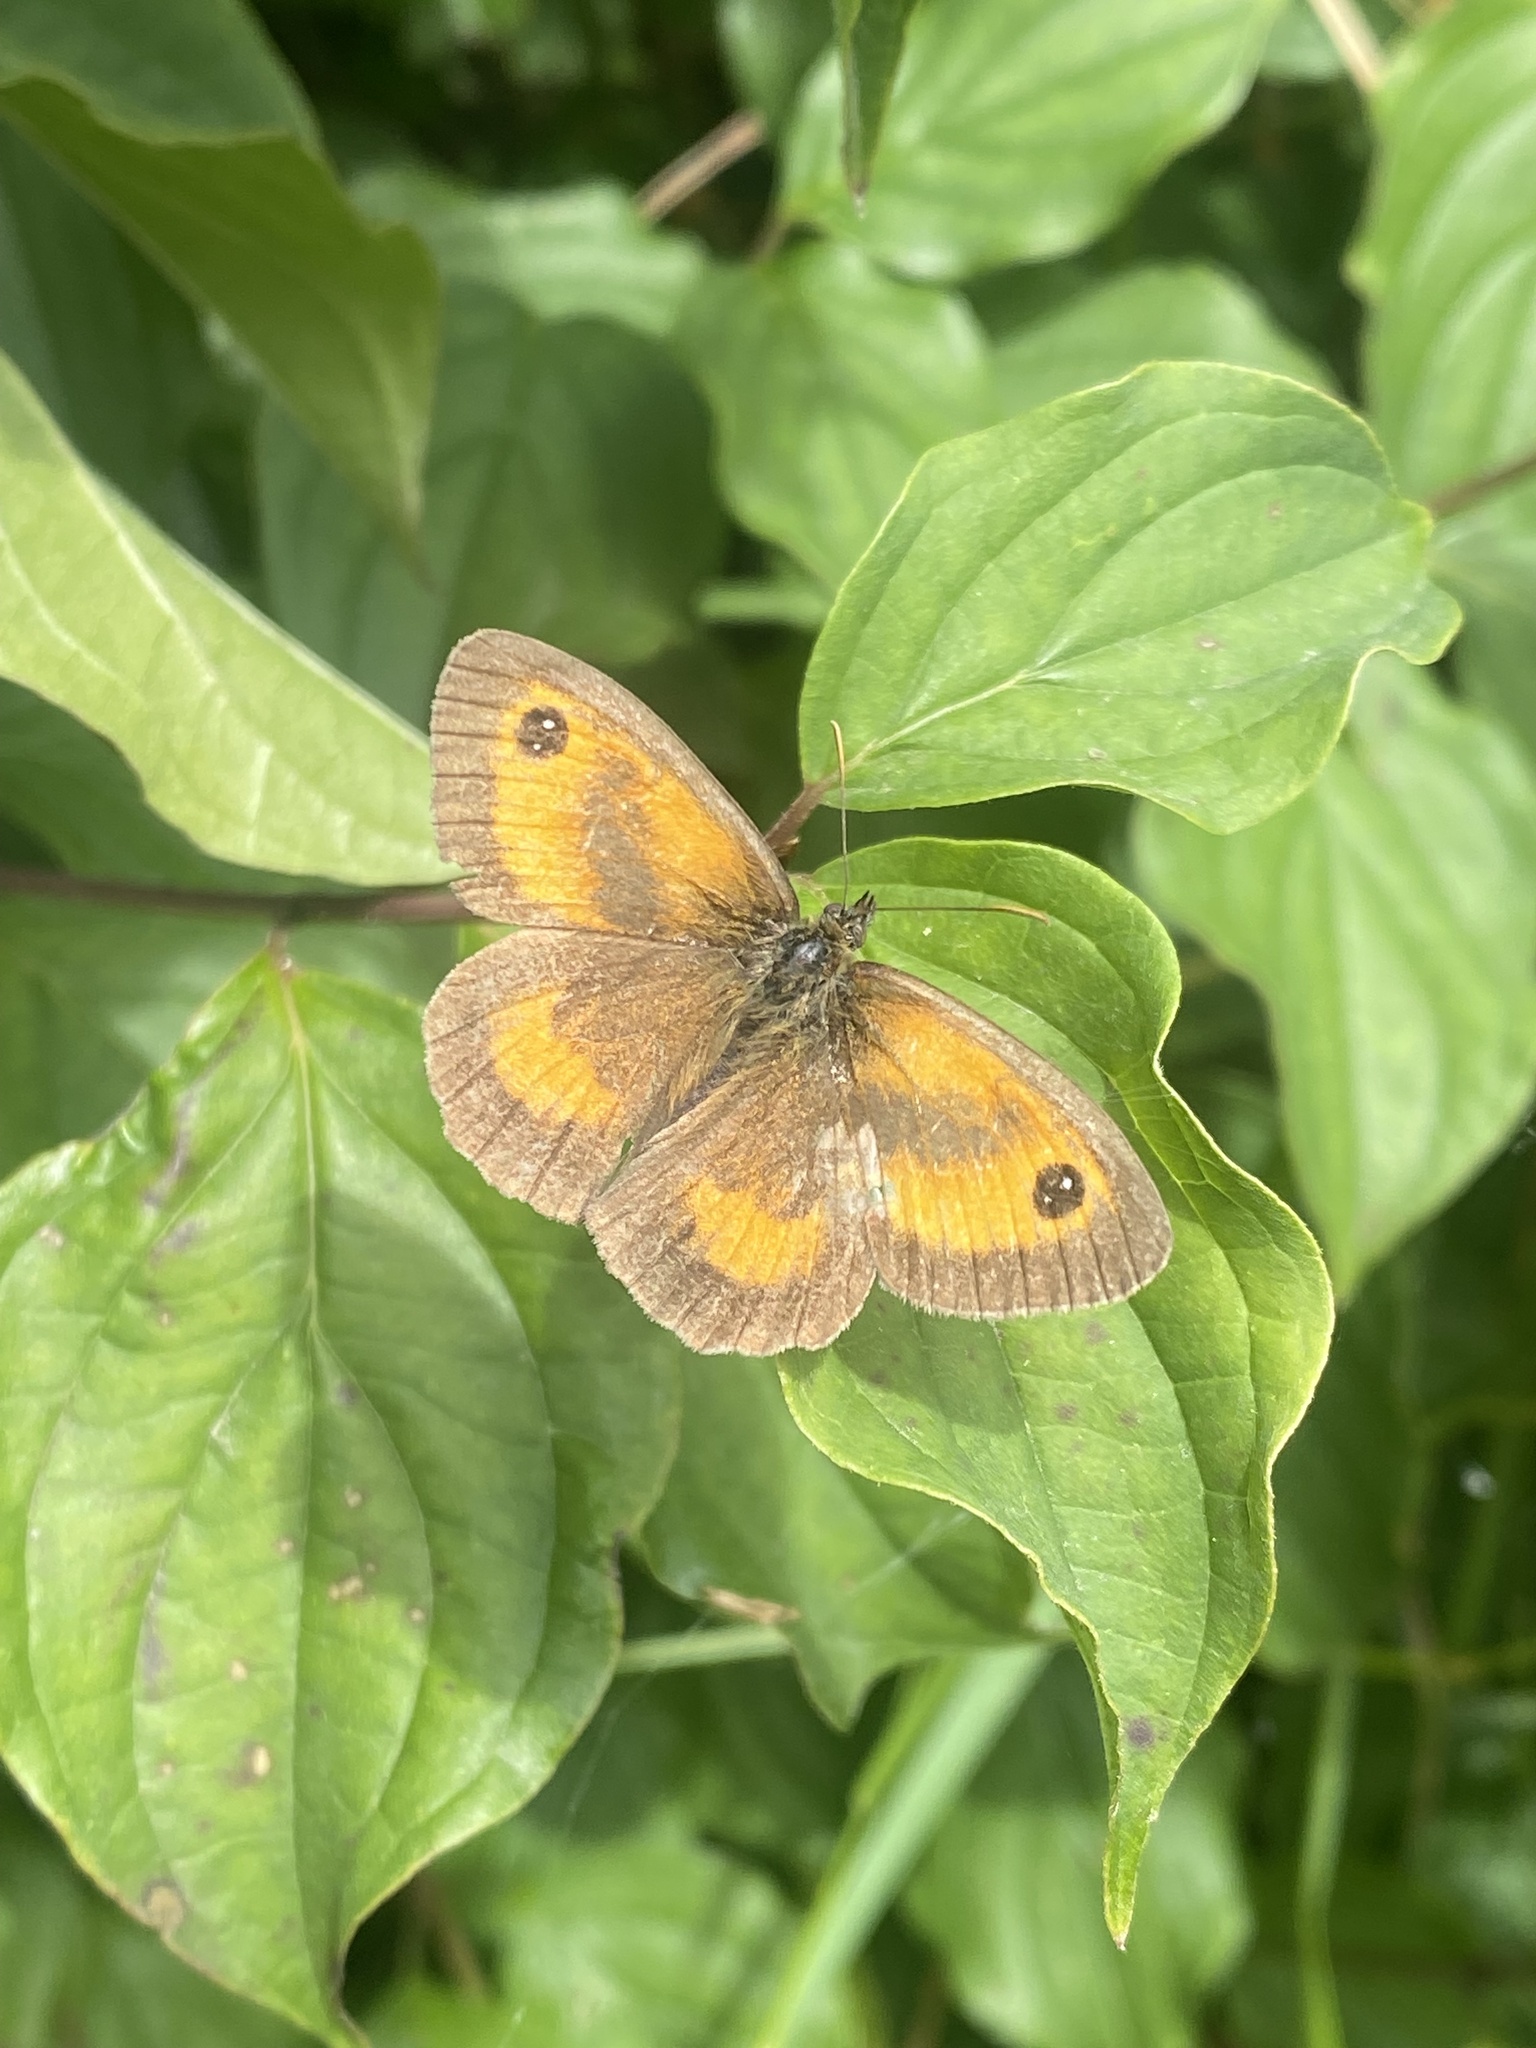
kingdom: Animalia
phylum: Arthropoda
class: Insecta
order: Lepidoptera
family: Nymphalidae
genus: Pyronia
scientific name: Pyronia tithonus
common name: Gatekeeper
